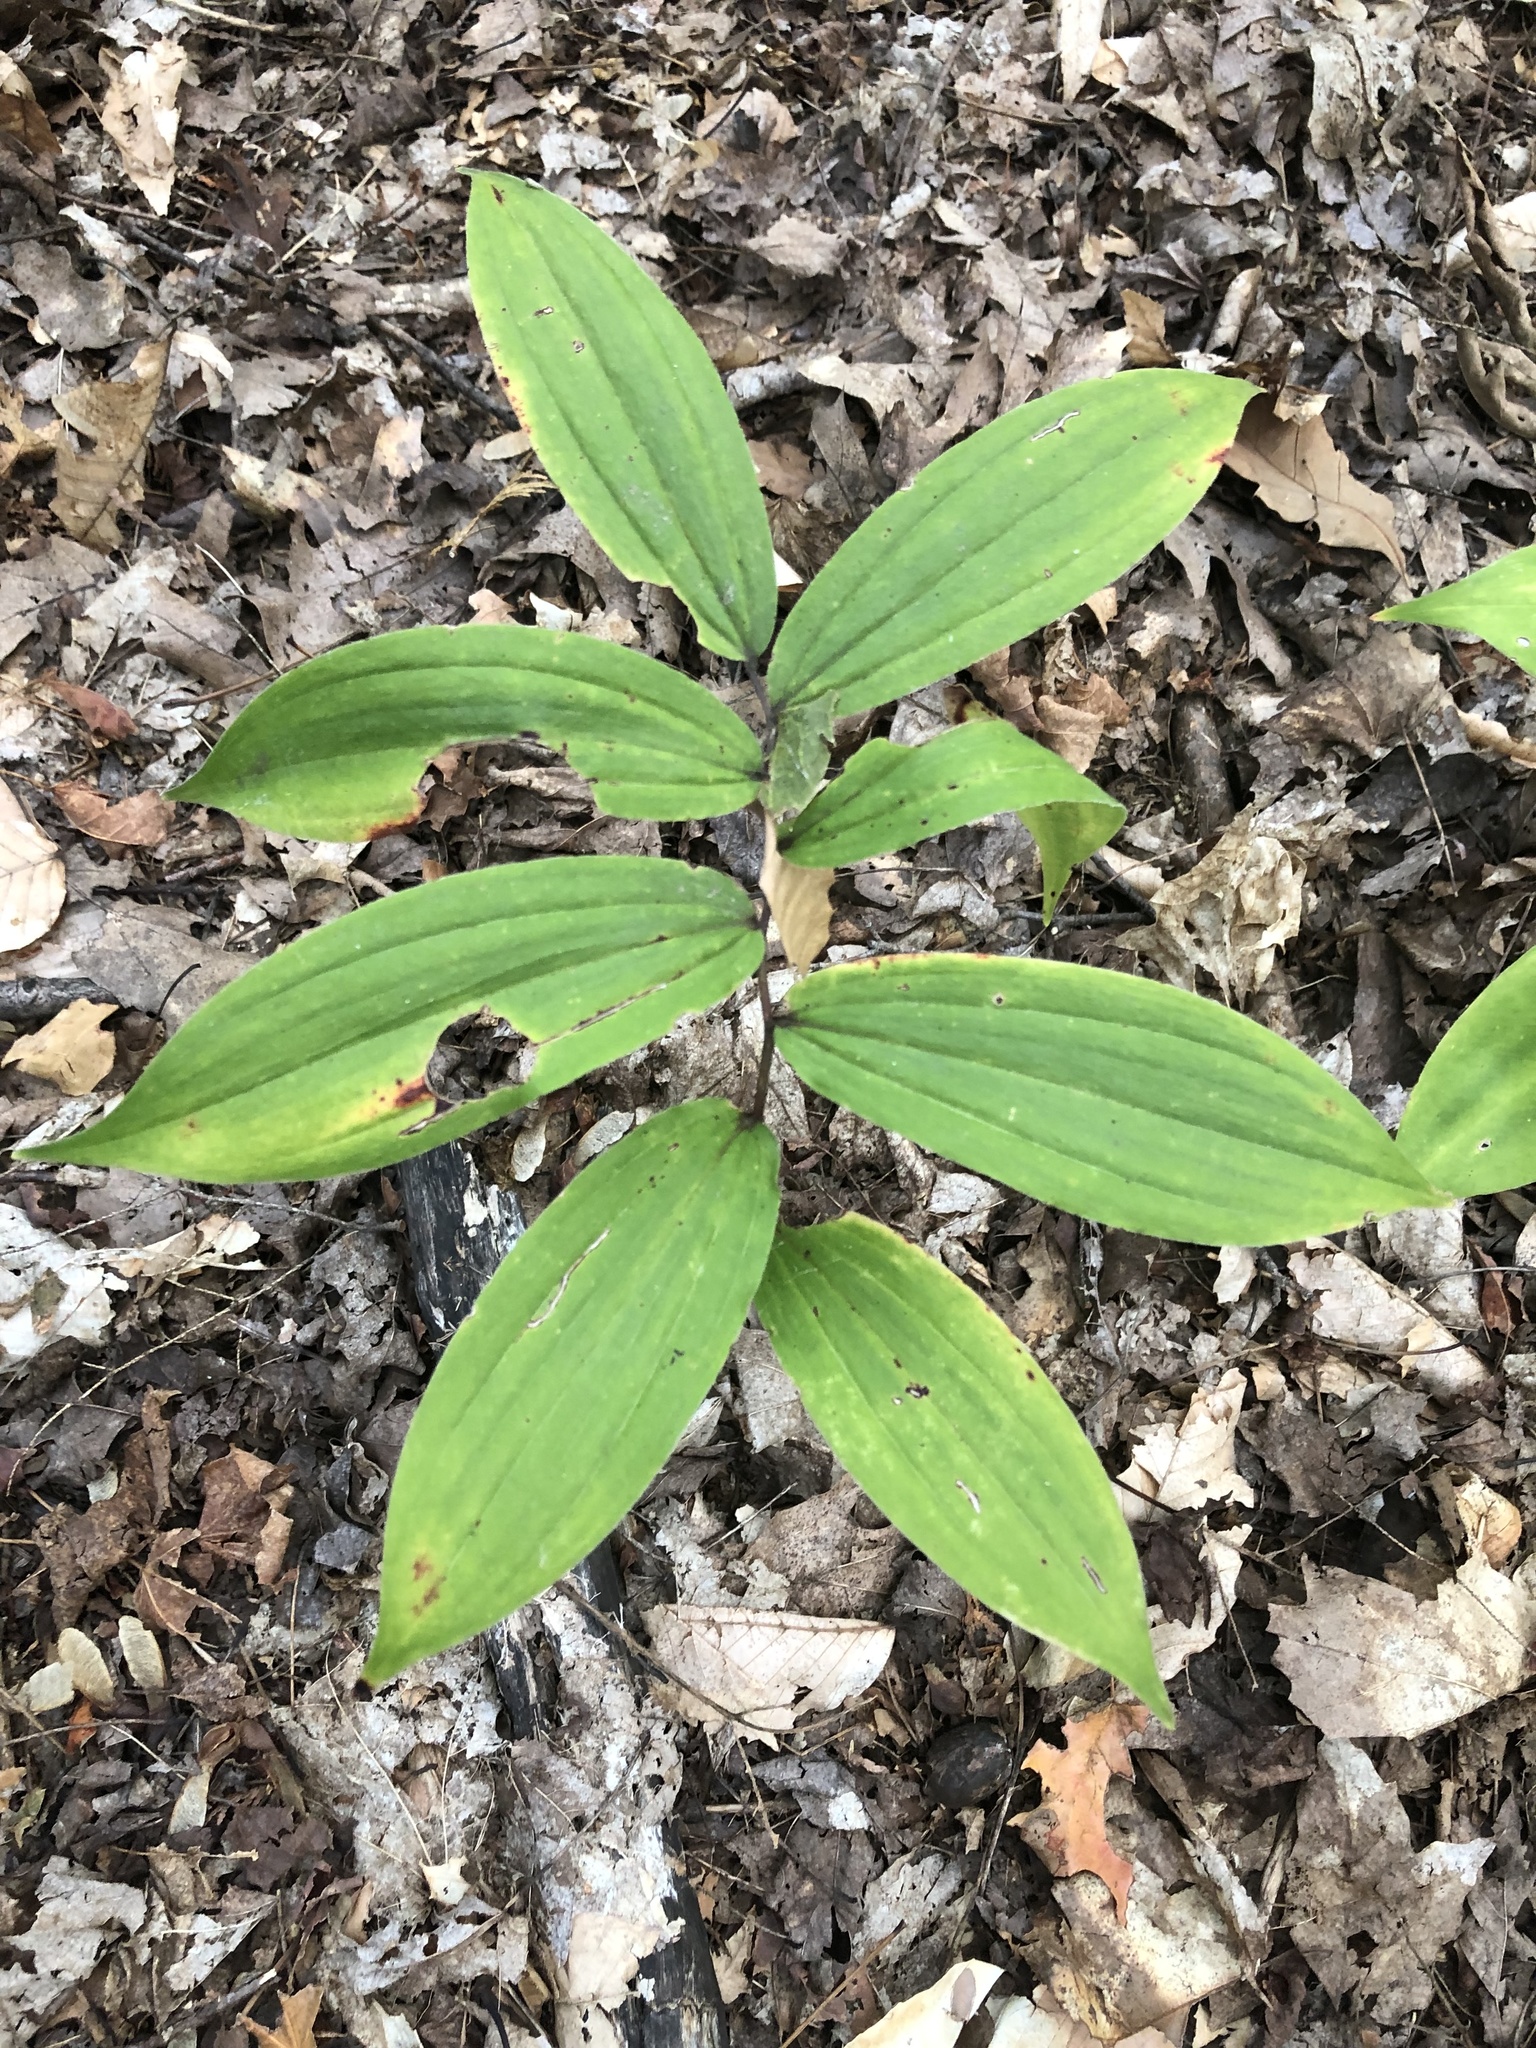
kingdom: Plantae
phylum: Tracheophyta
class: Liliopsida
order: Asparagales
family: Asparagaceae
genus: Maianthemum
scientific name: Maianthemum racemosum
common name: False spikenard
